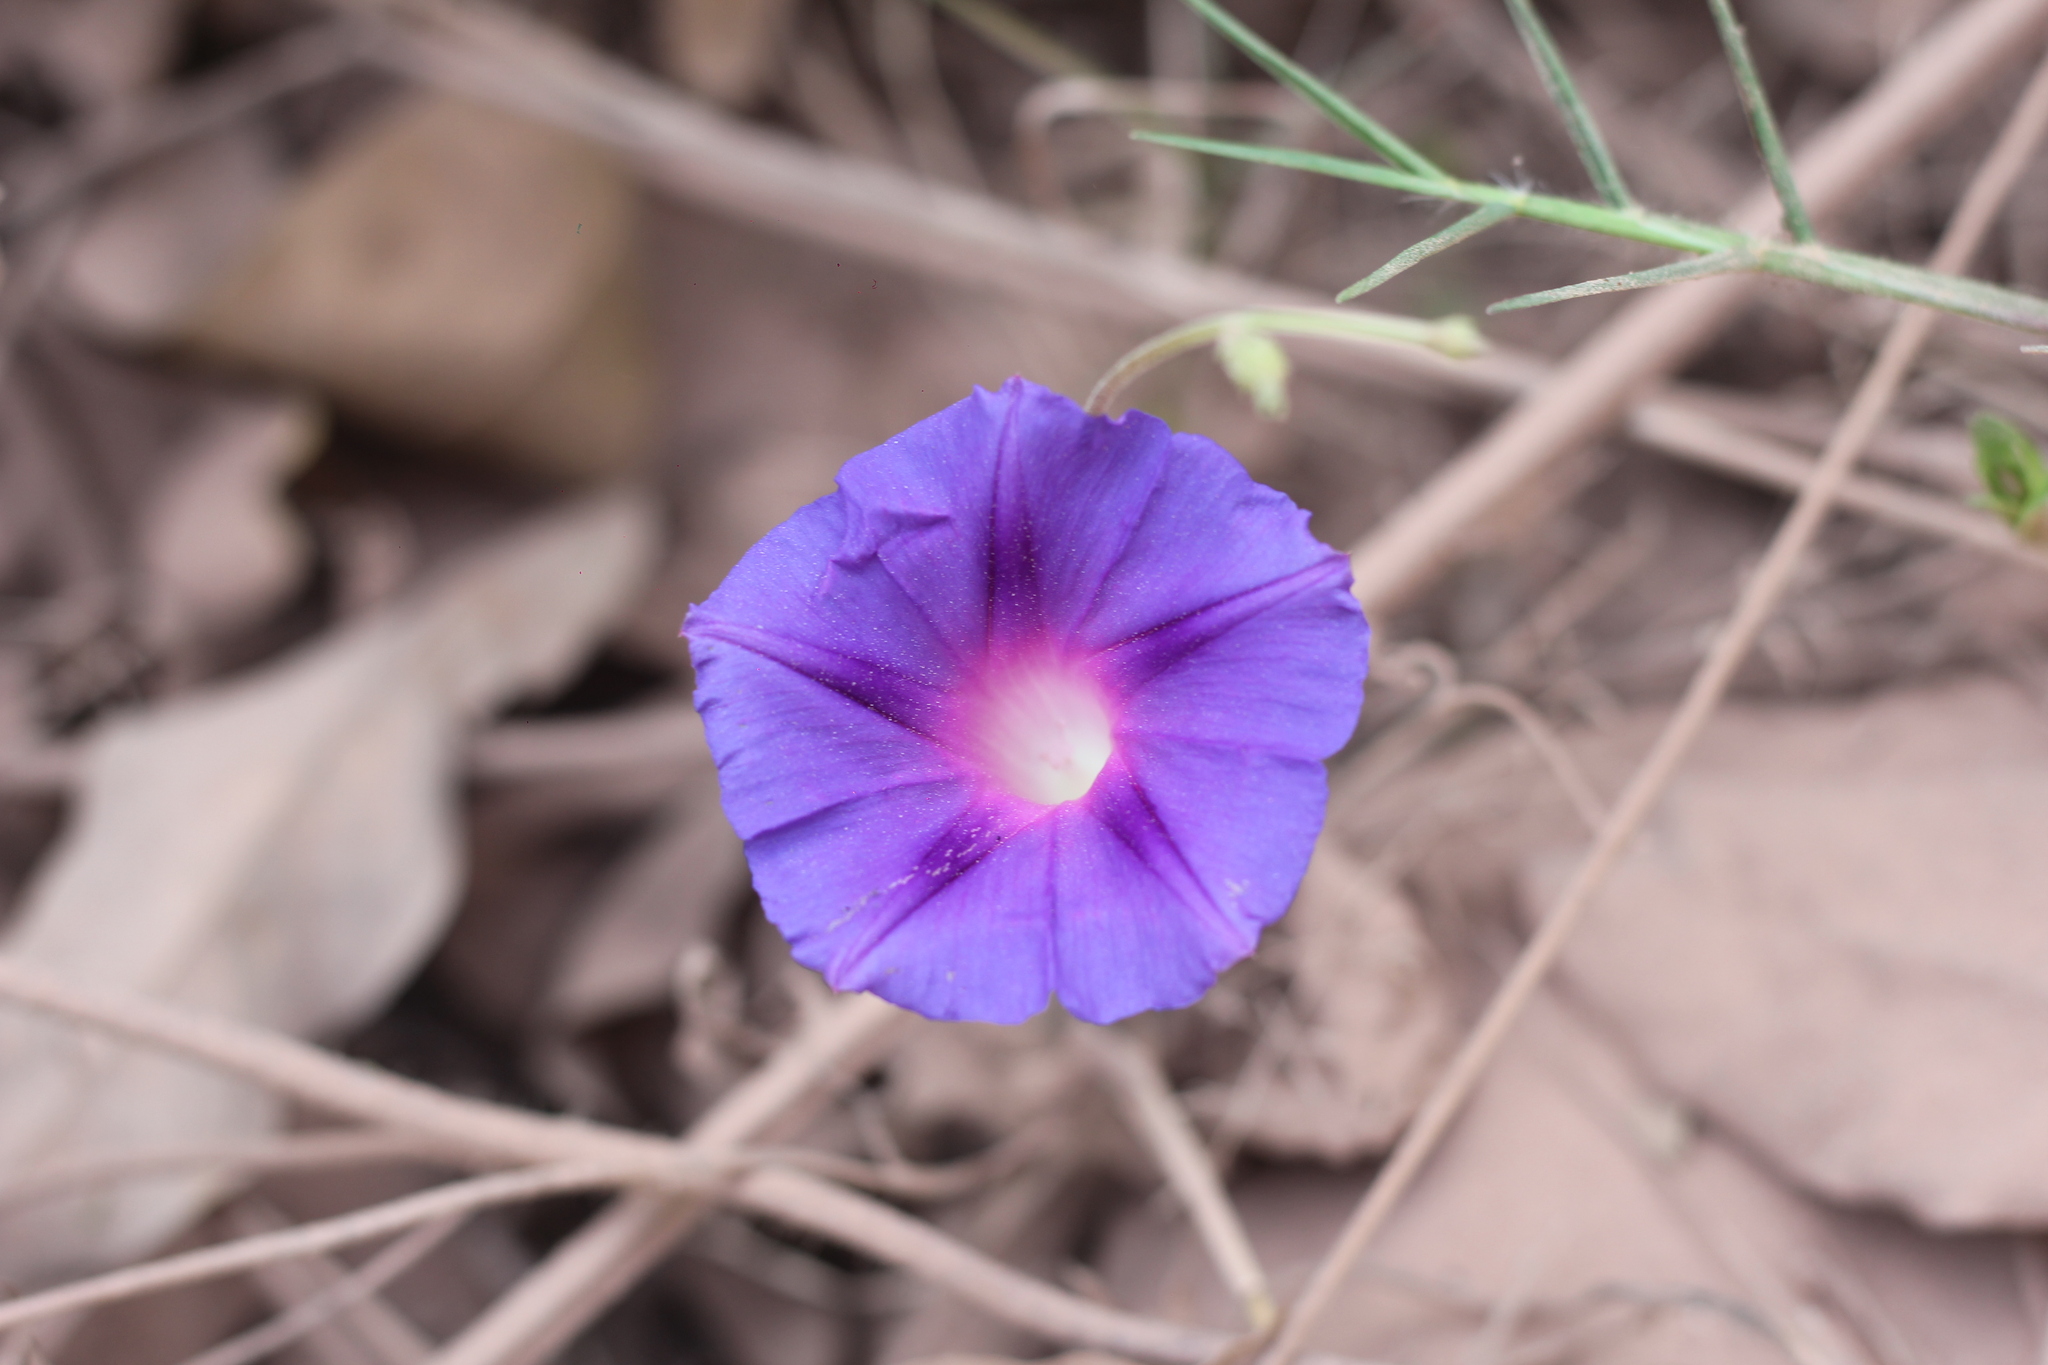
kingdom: Plantae
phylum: Tracheophyta
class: Magnoliopsida
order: Solanales
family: Convolvulaceae
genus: Ipomoea
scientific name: Ipomoea purpurea
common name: Common morning-glory
